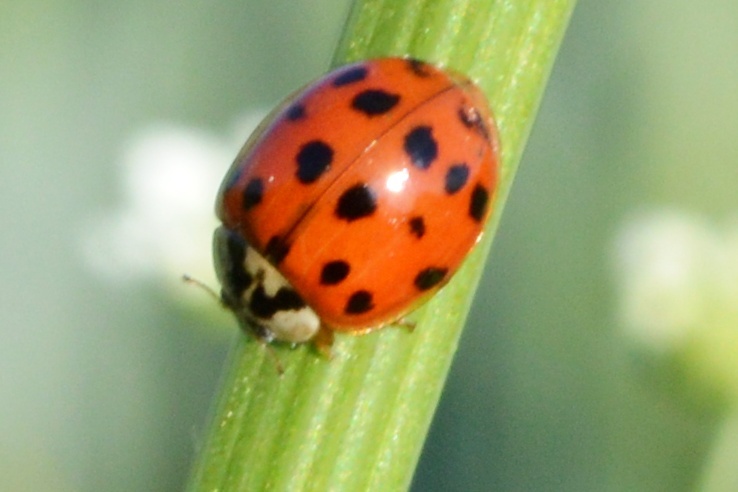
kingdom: Animalia
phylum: Arthropoda
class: Insecta
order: Coleoptera
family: Coccinellidae
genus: Harmonia
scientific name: Harmonia axyridis
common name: Harlequin ladybird
